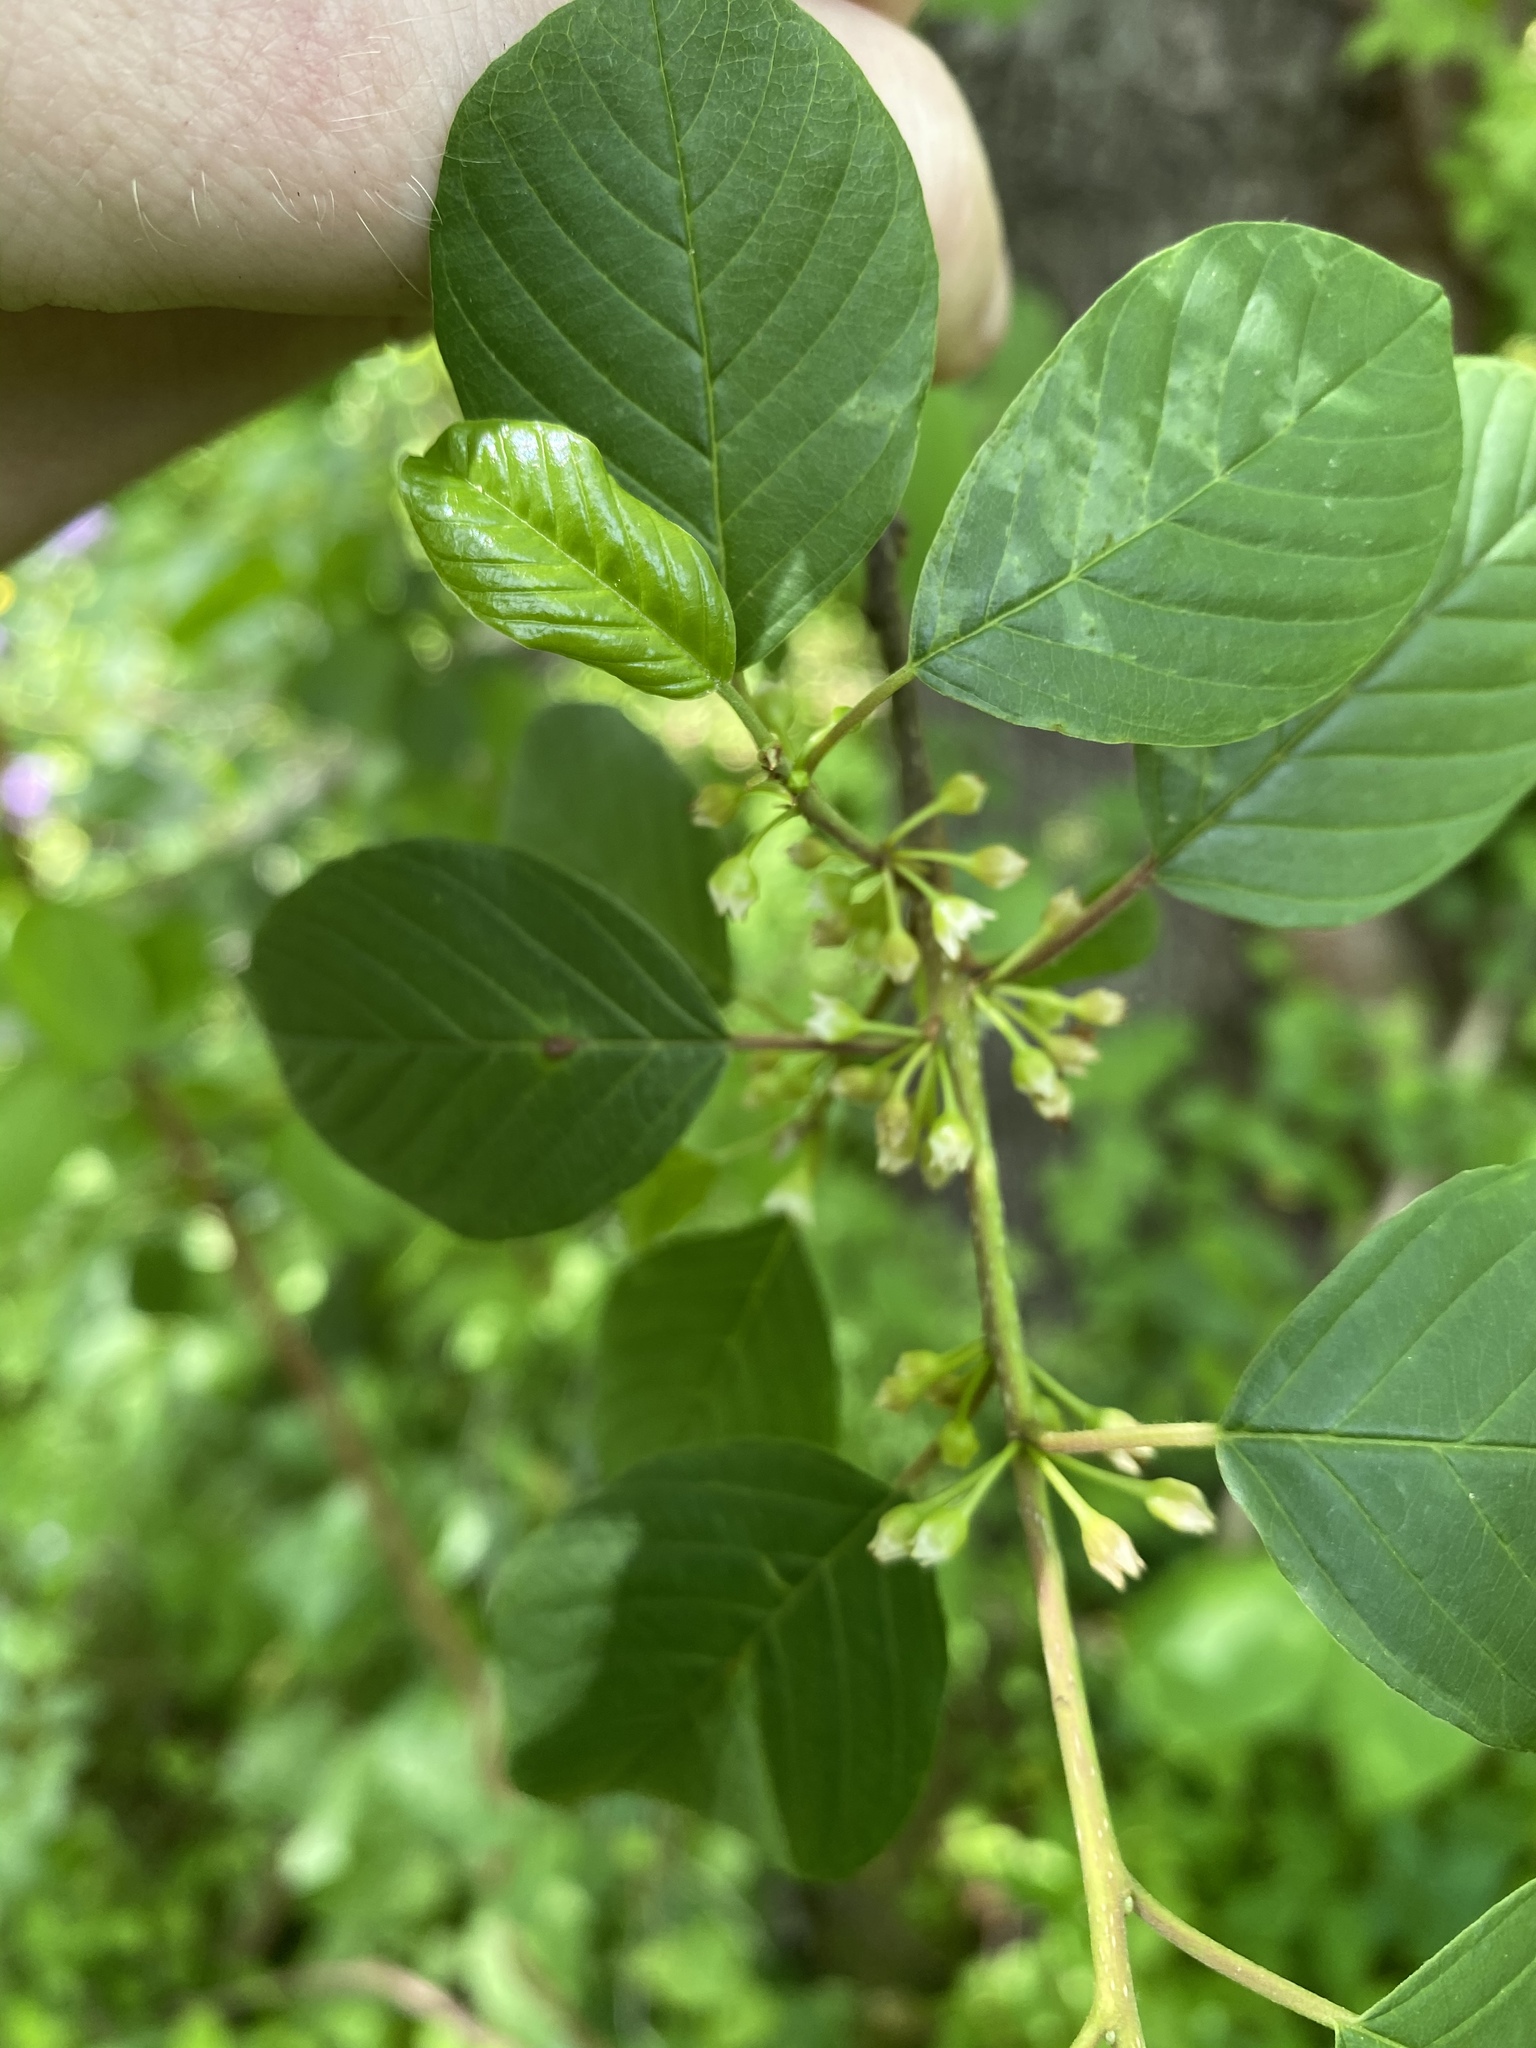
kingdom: Plantae
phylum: Tracheophyta
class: Magnoliopsida
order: Rosales
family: Rhamnaceae
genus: Frangula
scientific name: Frangula alnus
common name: Alder buckthorn
